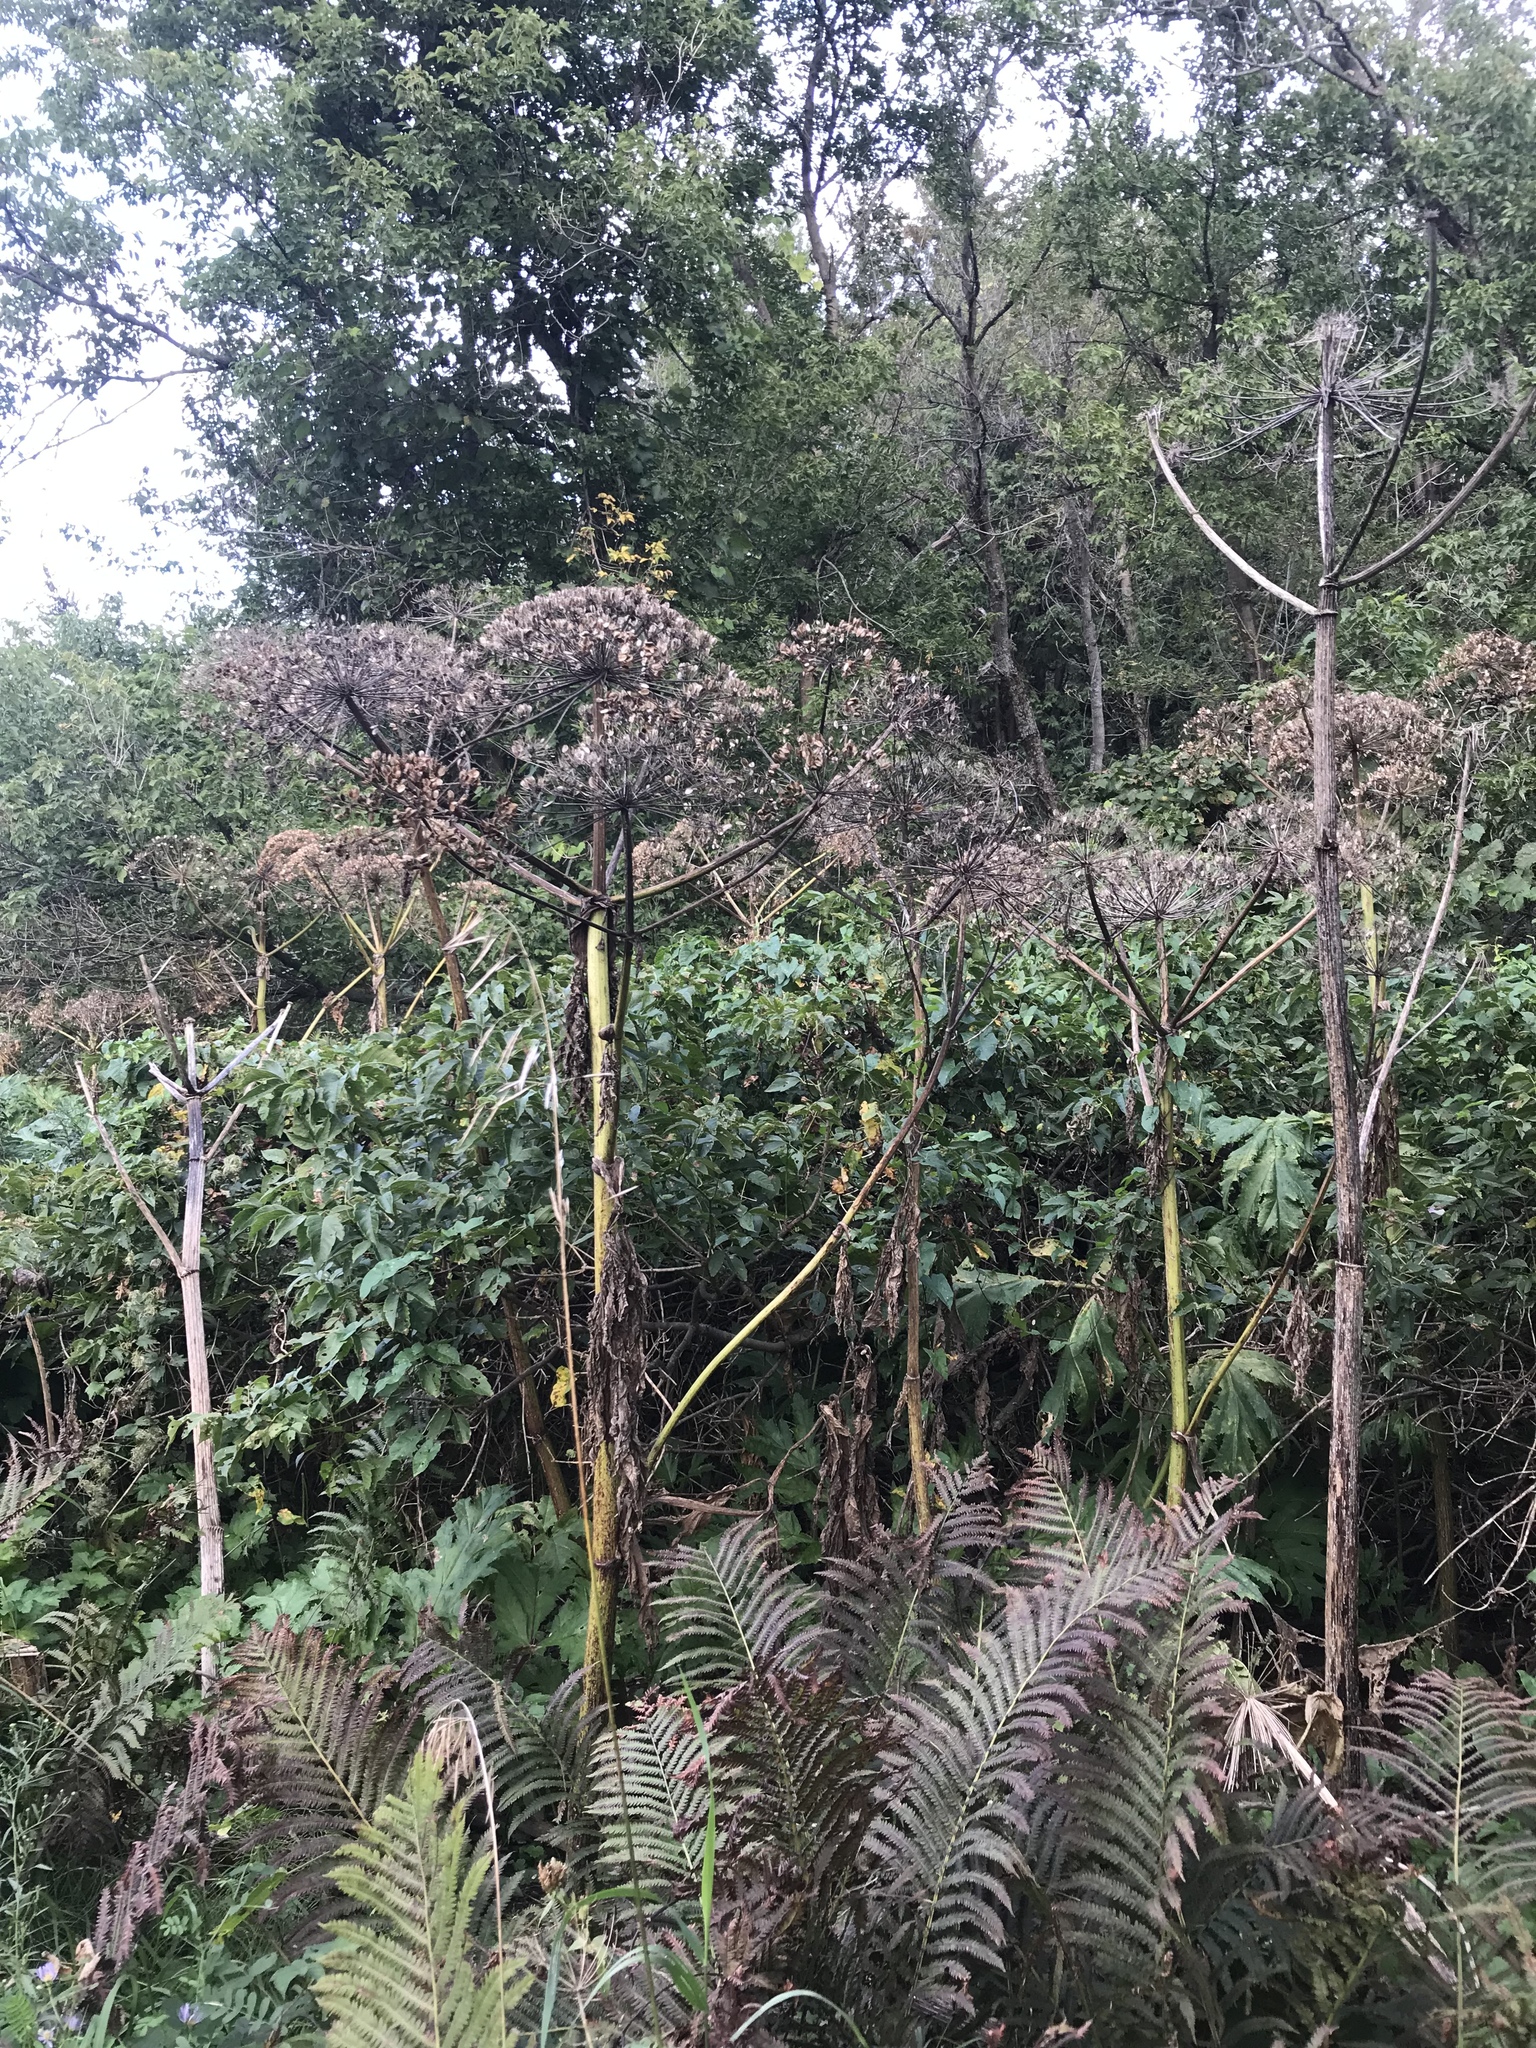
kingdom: Plantae
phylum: Tracheophyta
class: Magnoliopsida
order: Apiales
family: Apiaceae
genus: Heracleum
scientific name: Heracleum mantegazzianum
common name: Giant hogweed
